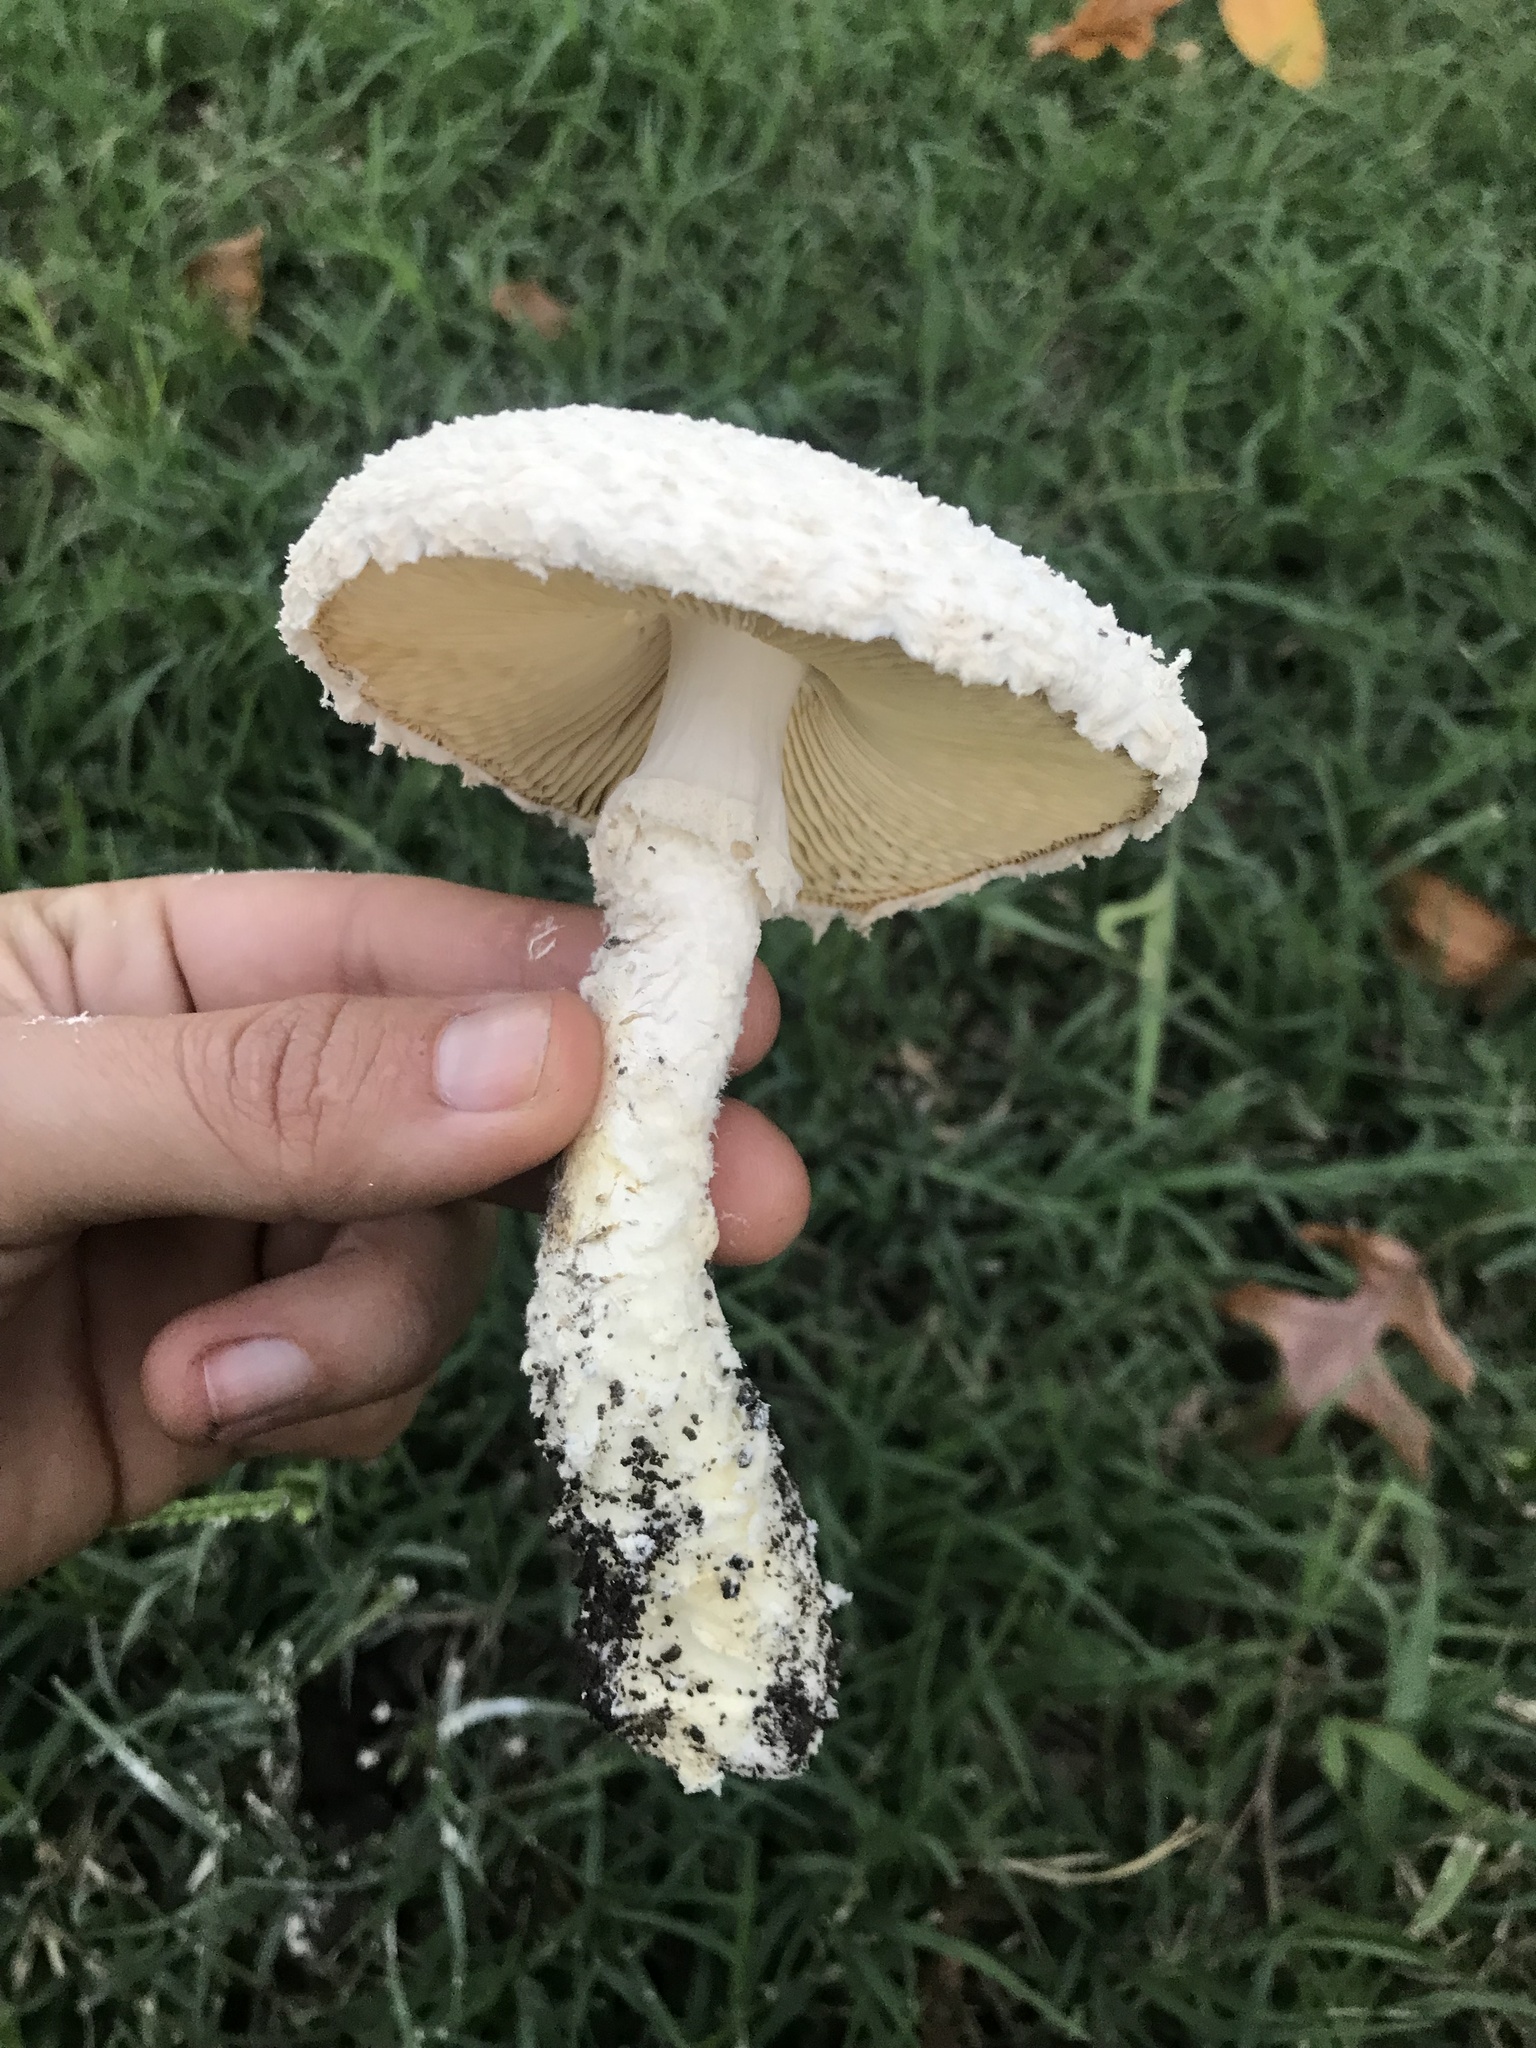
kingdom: Fungi
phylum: Basidiomycota
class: Agaricomycetes
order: Agaricales
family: Amanitaceae
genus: Aspidella
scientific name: Aspidella foetens
